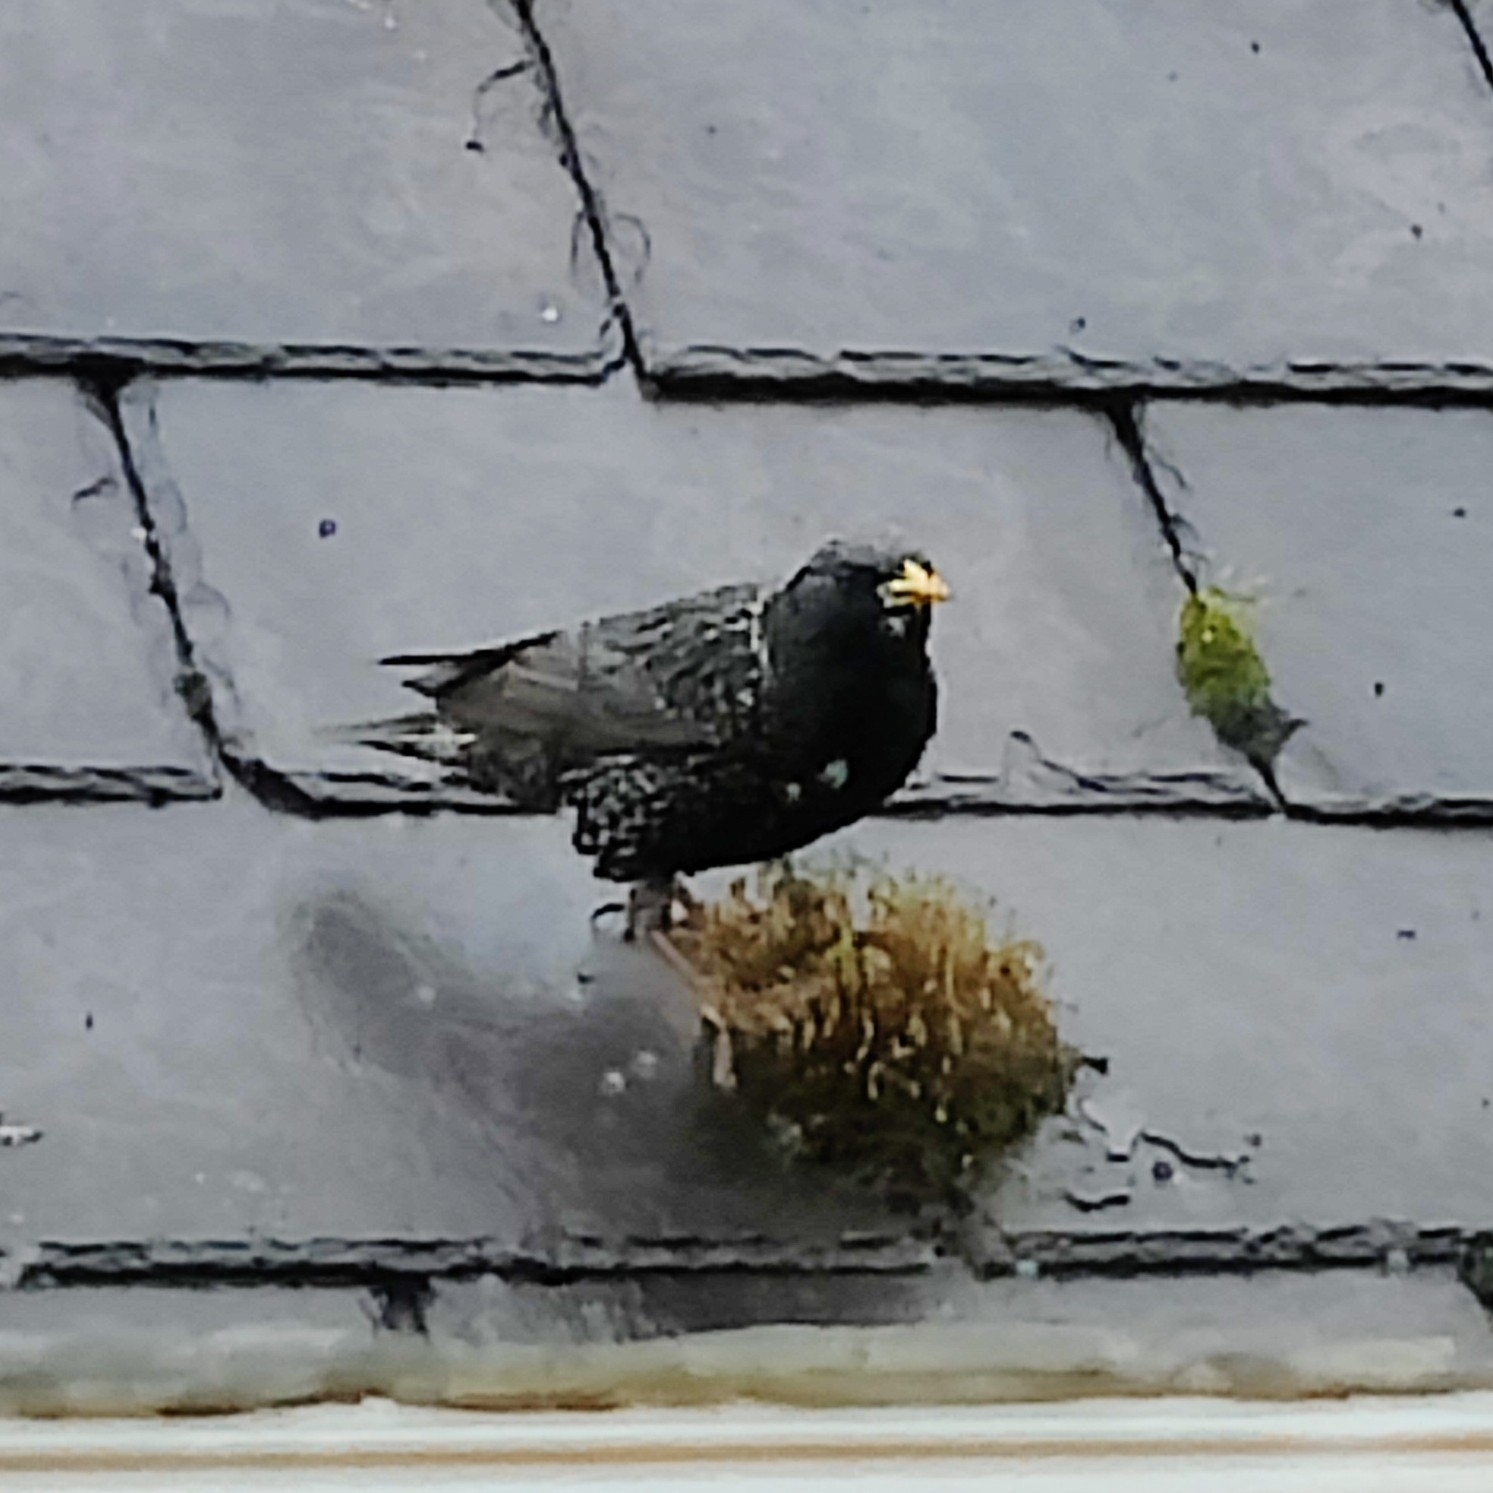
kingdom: Animalia
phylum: Chordata
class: Aves
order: Passeriformes
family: Sturnidae
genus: Sturnus
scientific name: Sturnus vulgaris
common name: Common starling
